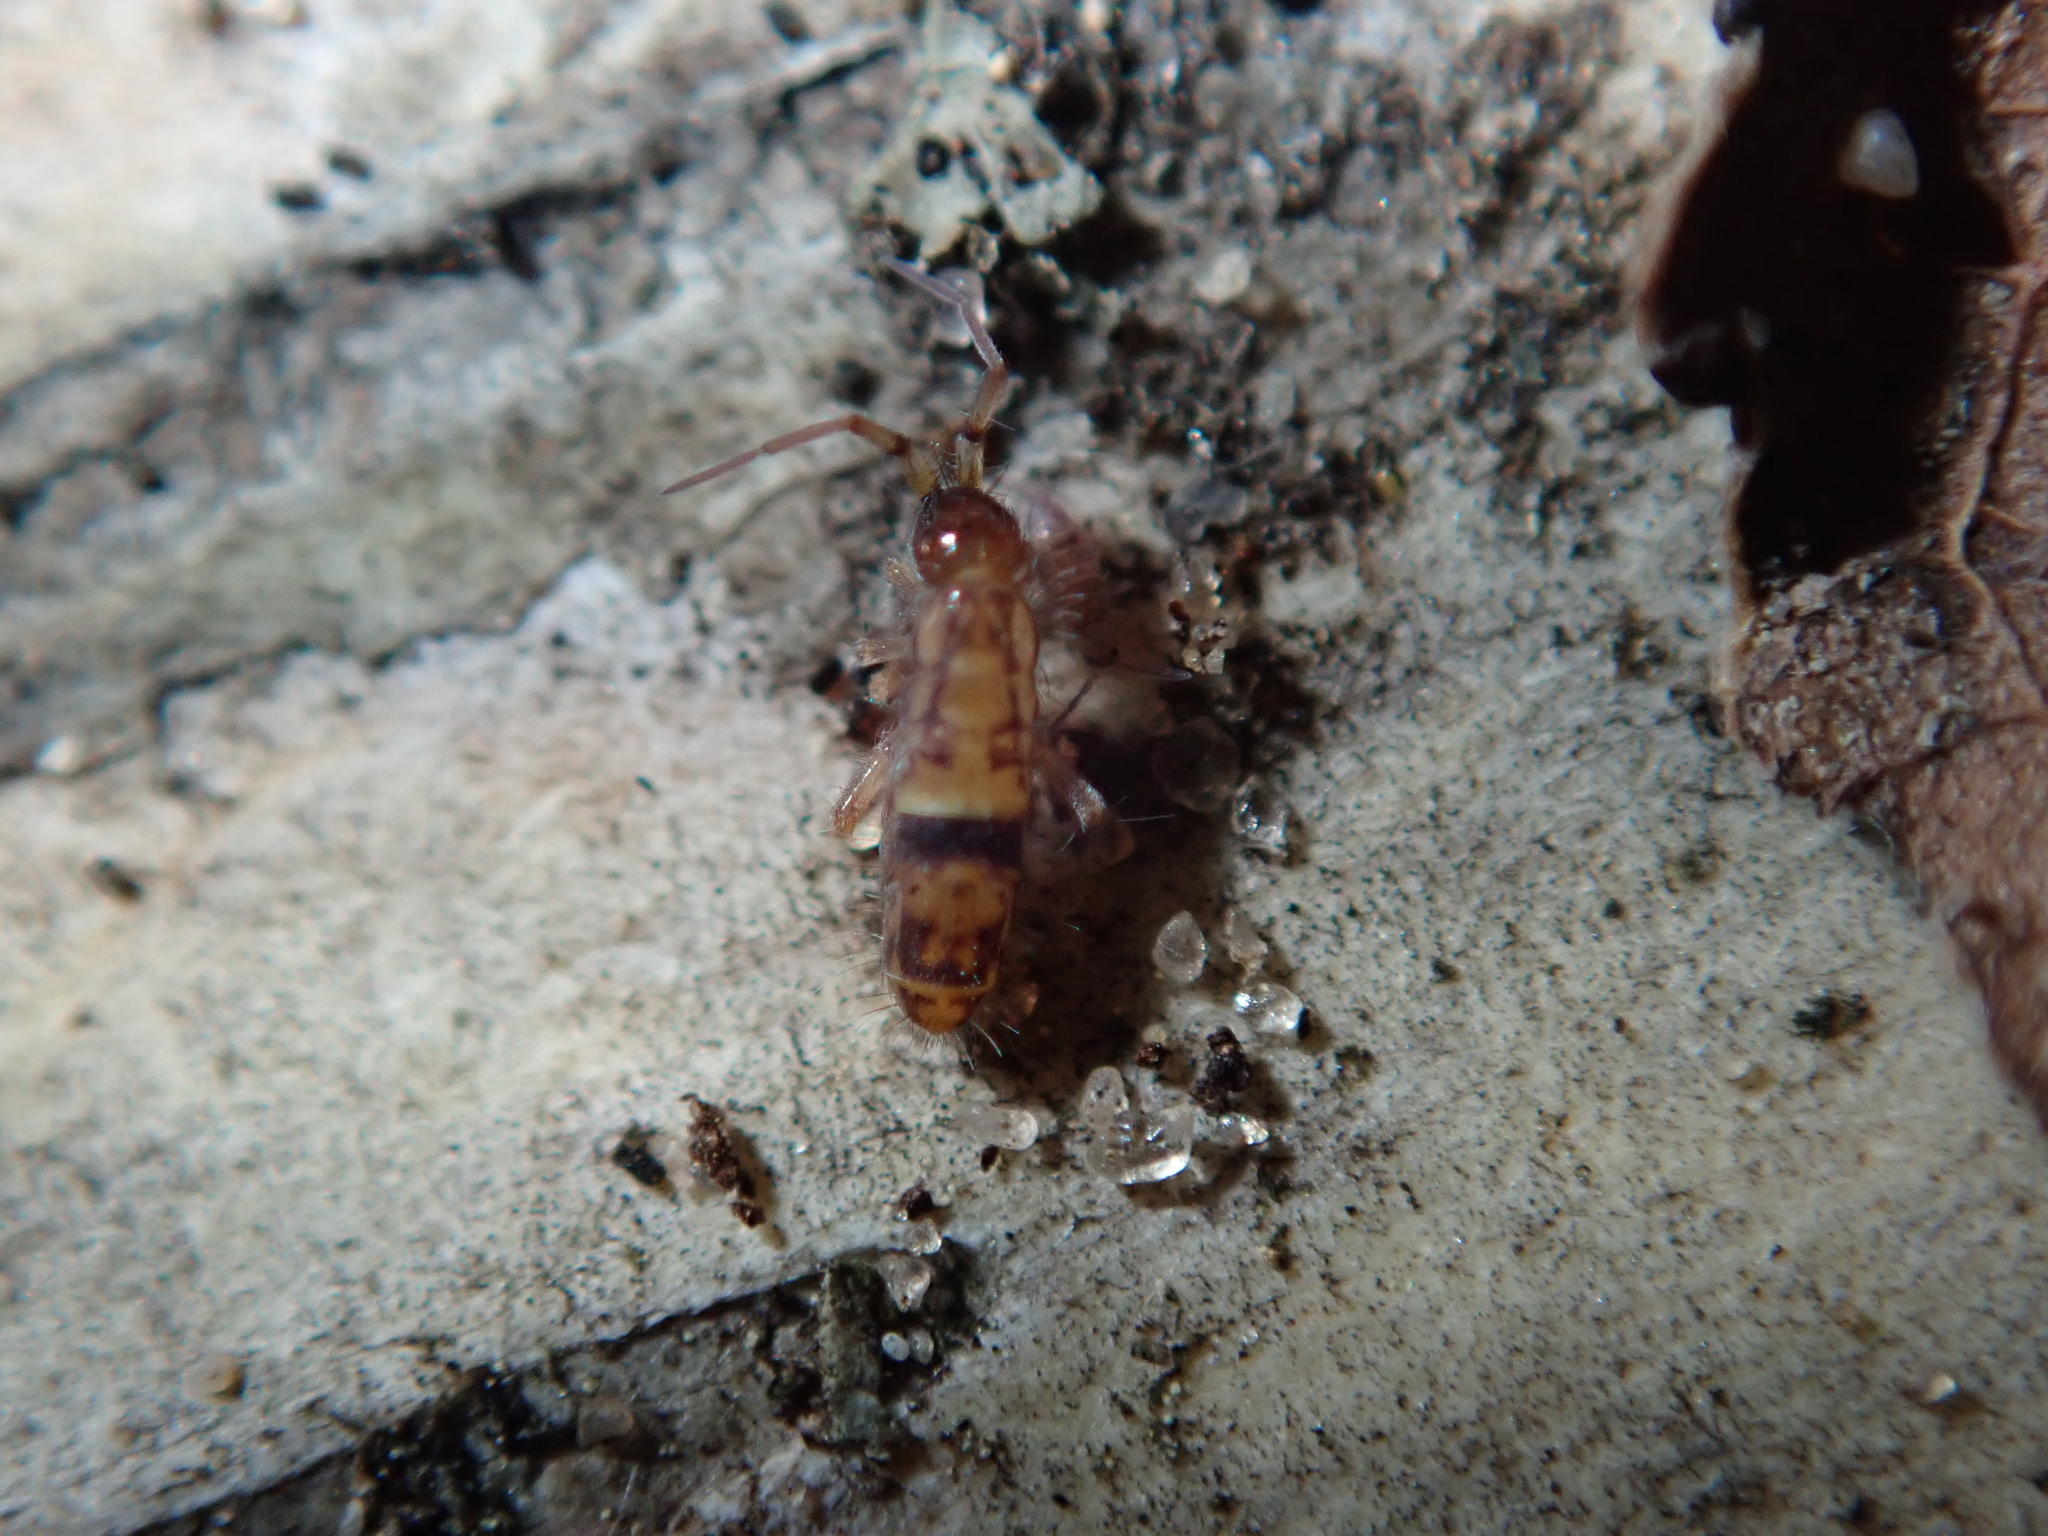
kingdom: Animalia
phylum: Arthropoda
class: Collembola
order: Entomobryomorpha
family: Orchesellidae
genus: Orchesella
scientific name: Orchesella cincta
